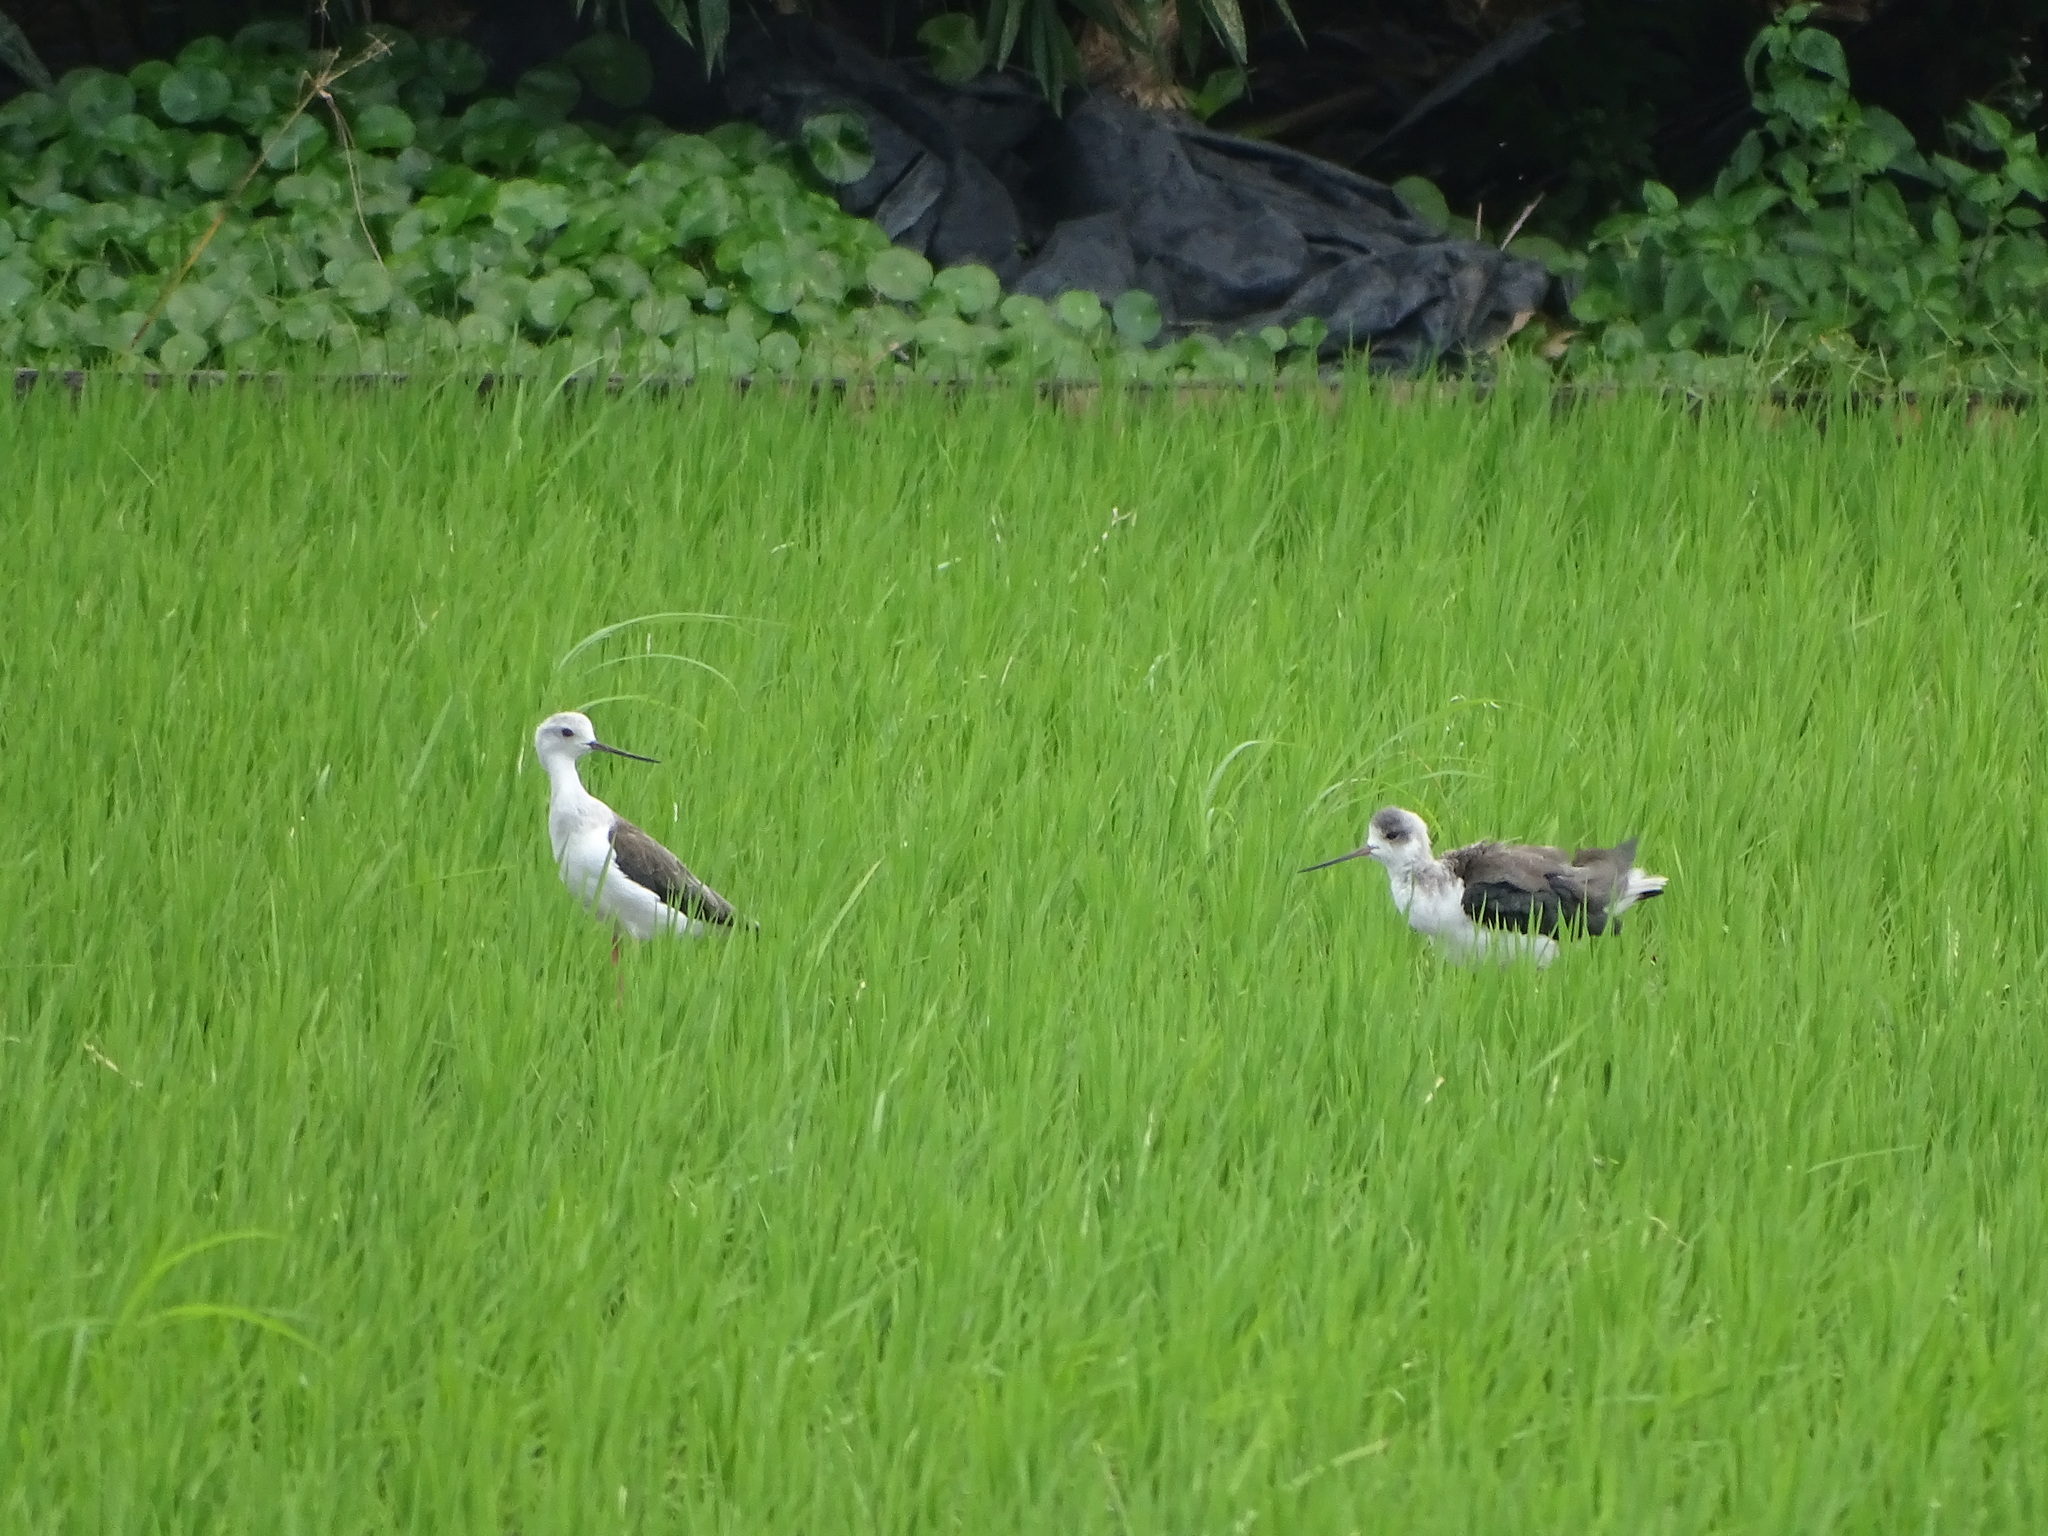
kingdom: Animalia
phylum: Chordata
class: Aves
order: Charadriiformes
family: Recurvirostridae
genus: Himantopus
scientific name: Himantopus himantopus
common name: Black-winged stilt
